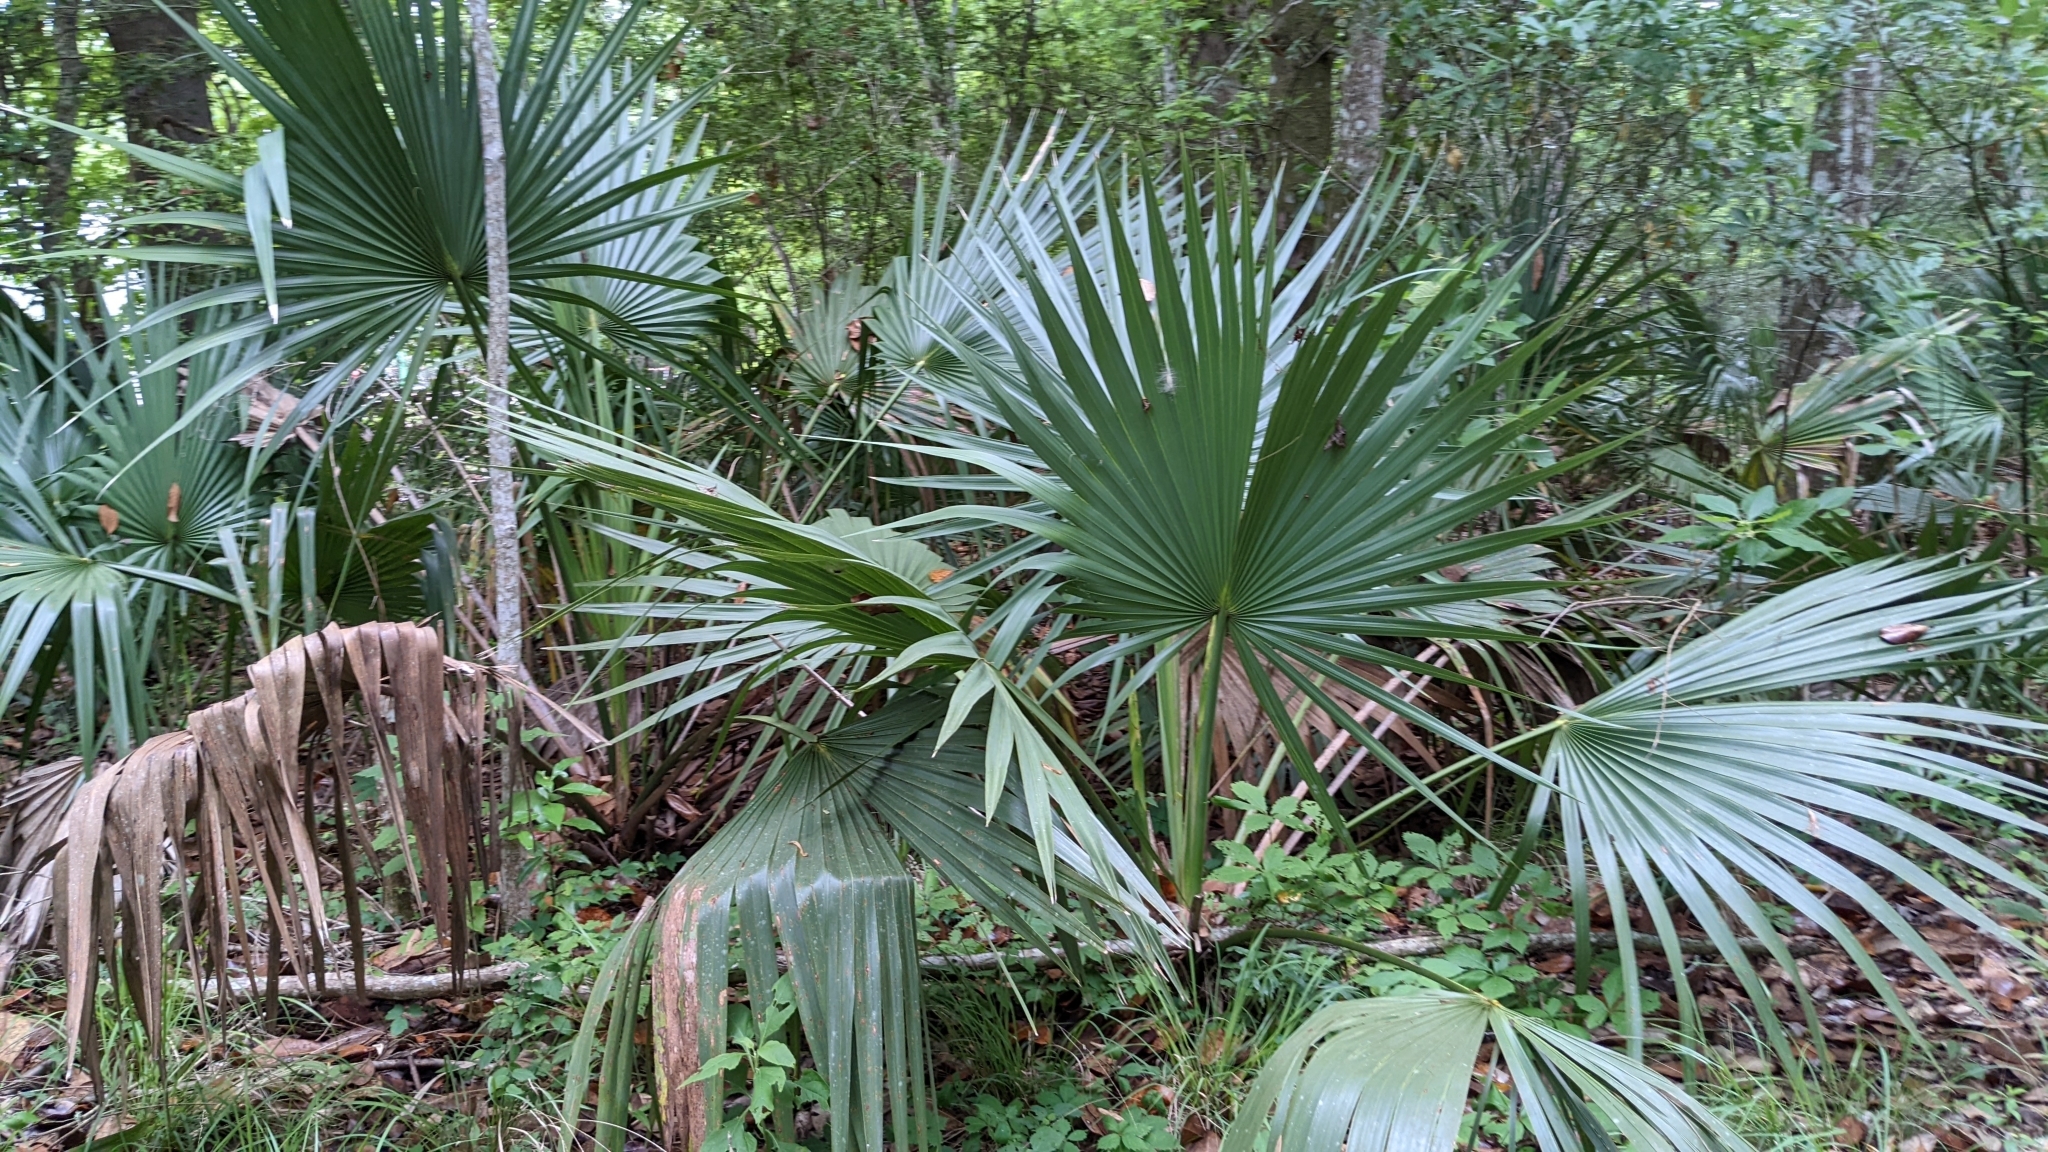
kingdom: Plantae
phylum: Tracheophyta
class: Liliopsida
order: Arecales
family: Arecaceae
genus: Sabal
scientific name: Sabal minor
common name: Dwarf palmetto
